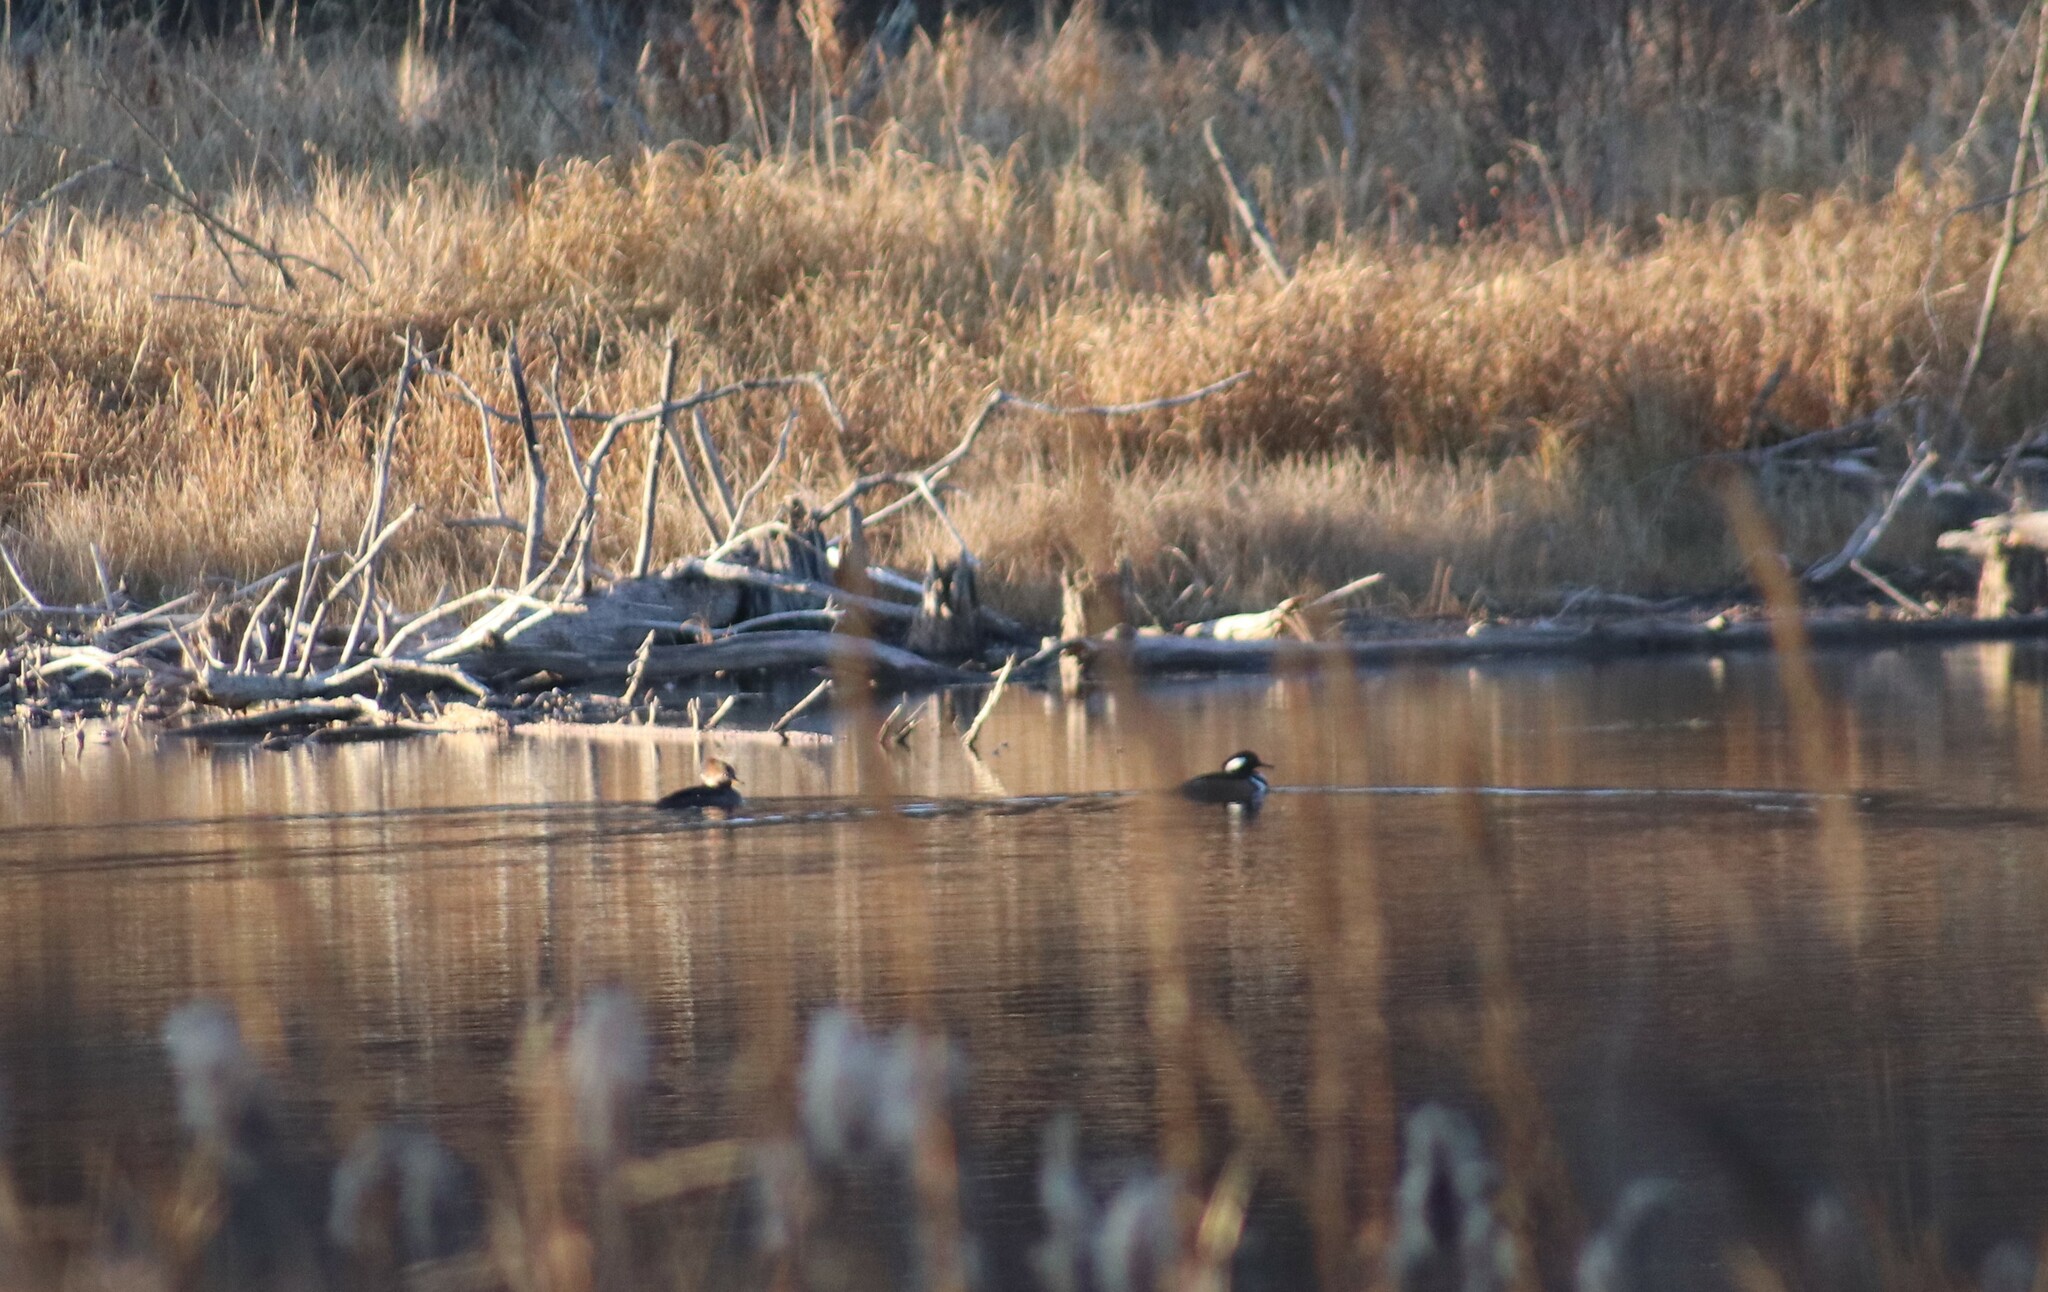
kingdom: Animalia
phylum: Chordata
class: Aves
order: Anseriformes
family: Anatidae
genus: Lophodytes
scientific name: Lophodytes cucullatus
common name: Hooded merganser
